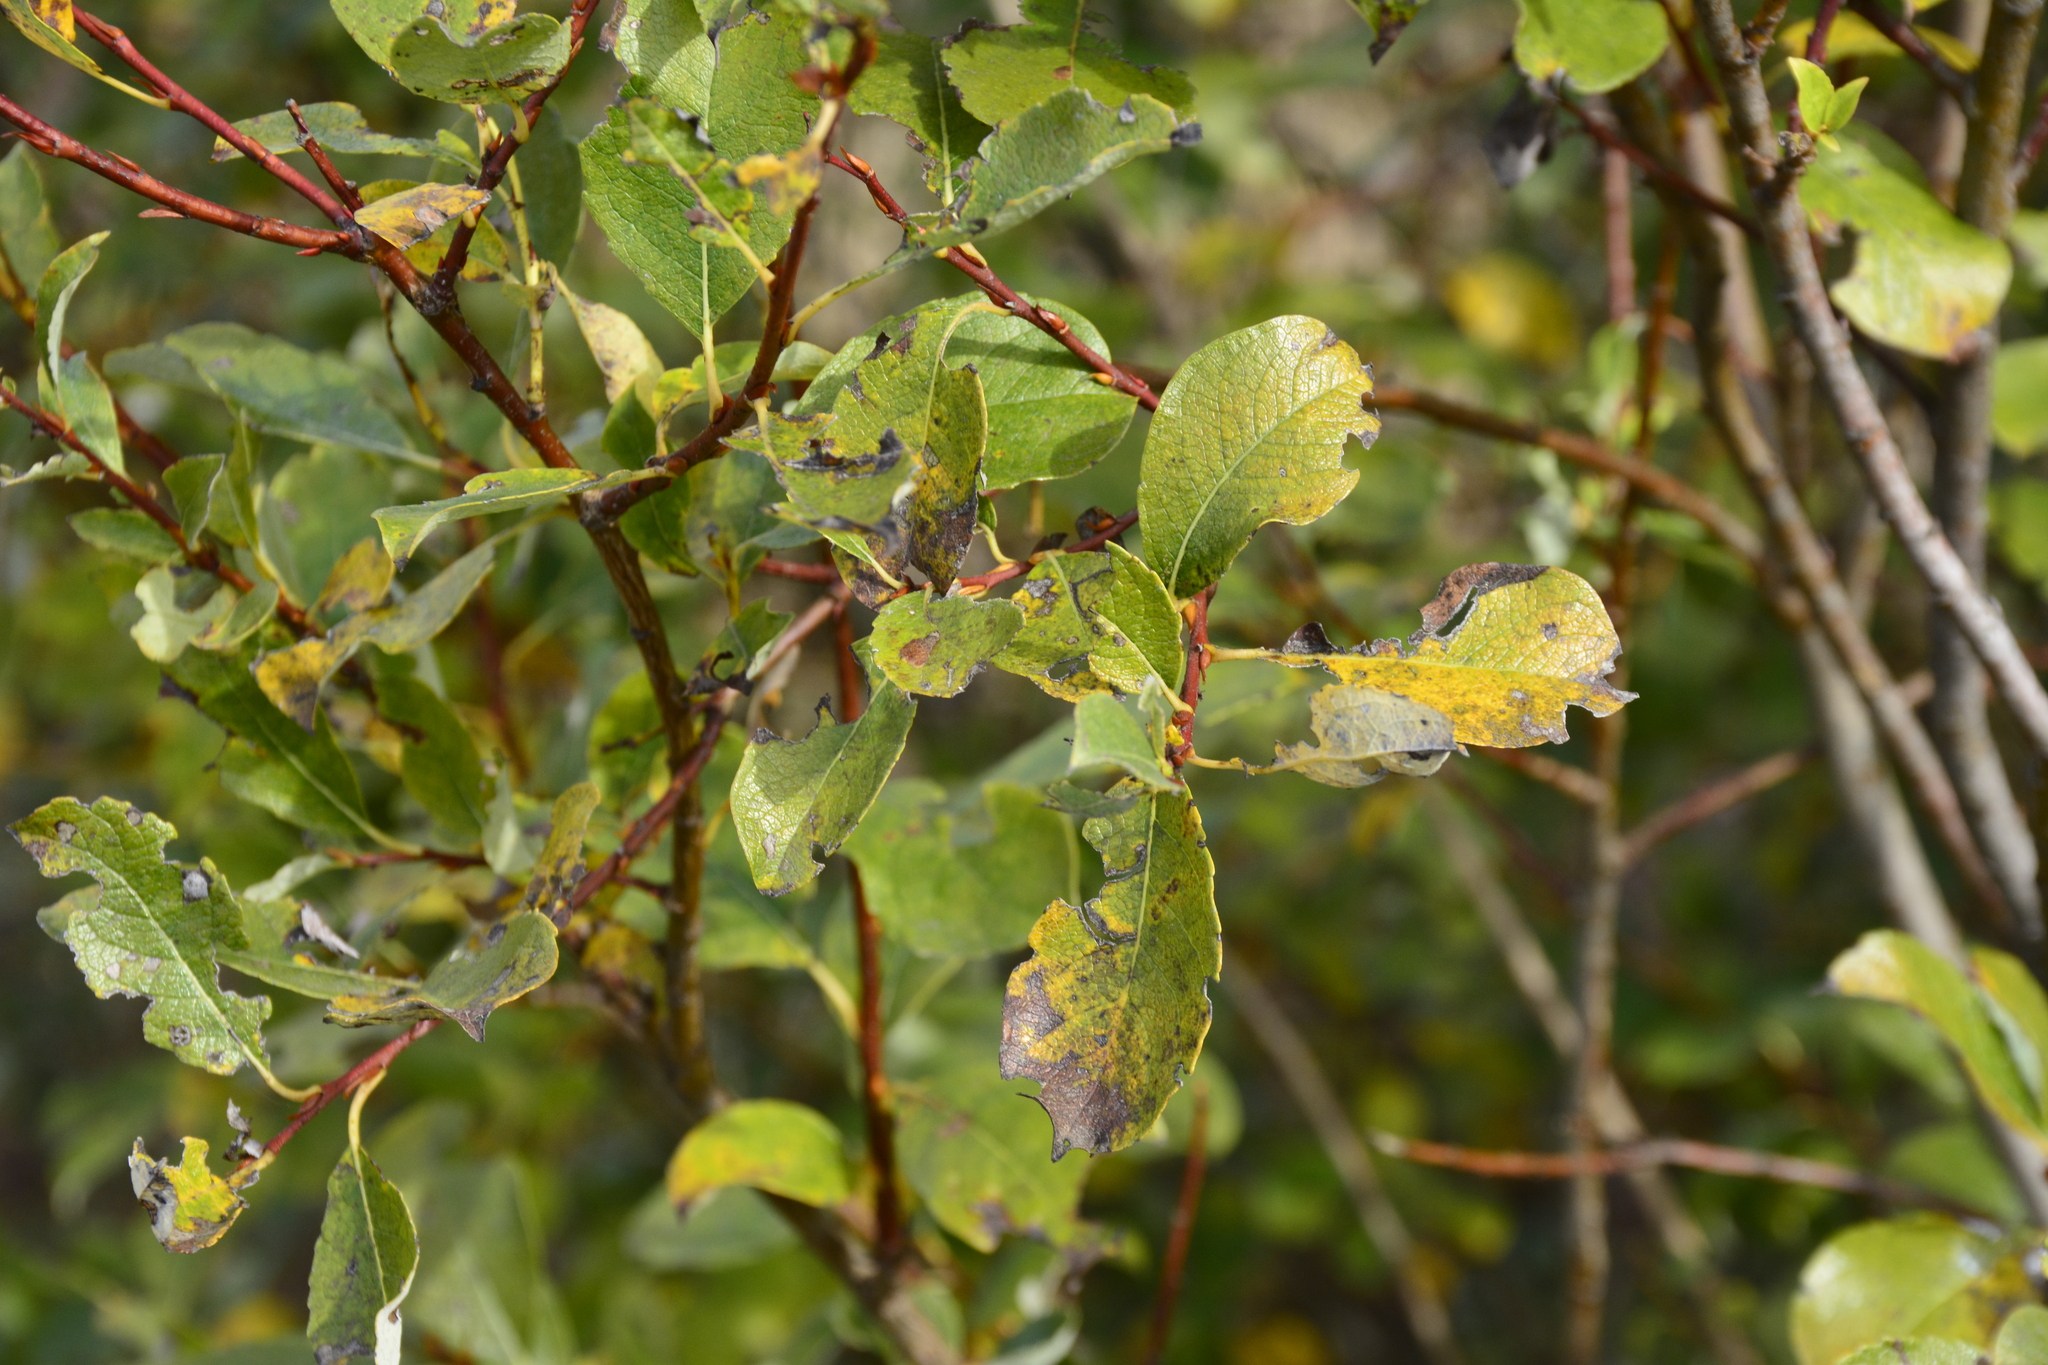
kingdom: Plantae
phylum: Tracheophyta
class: Magnoliopsida
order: Malpighiales
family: Salicaceae
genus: Salix
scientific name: Salix starkeana
